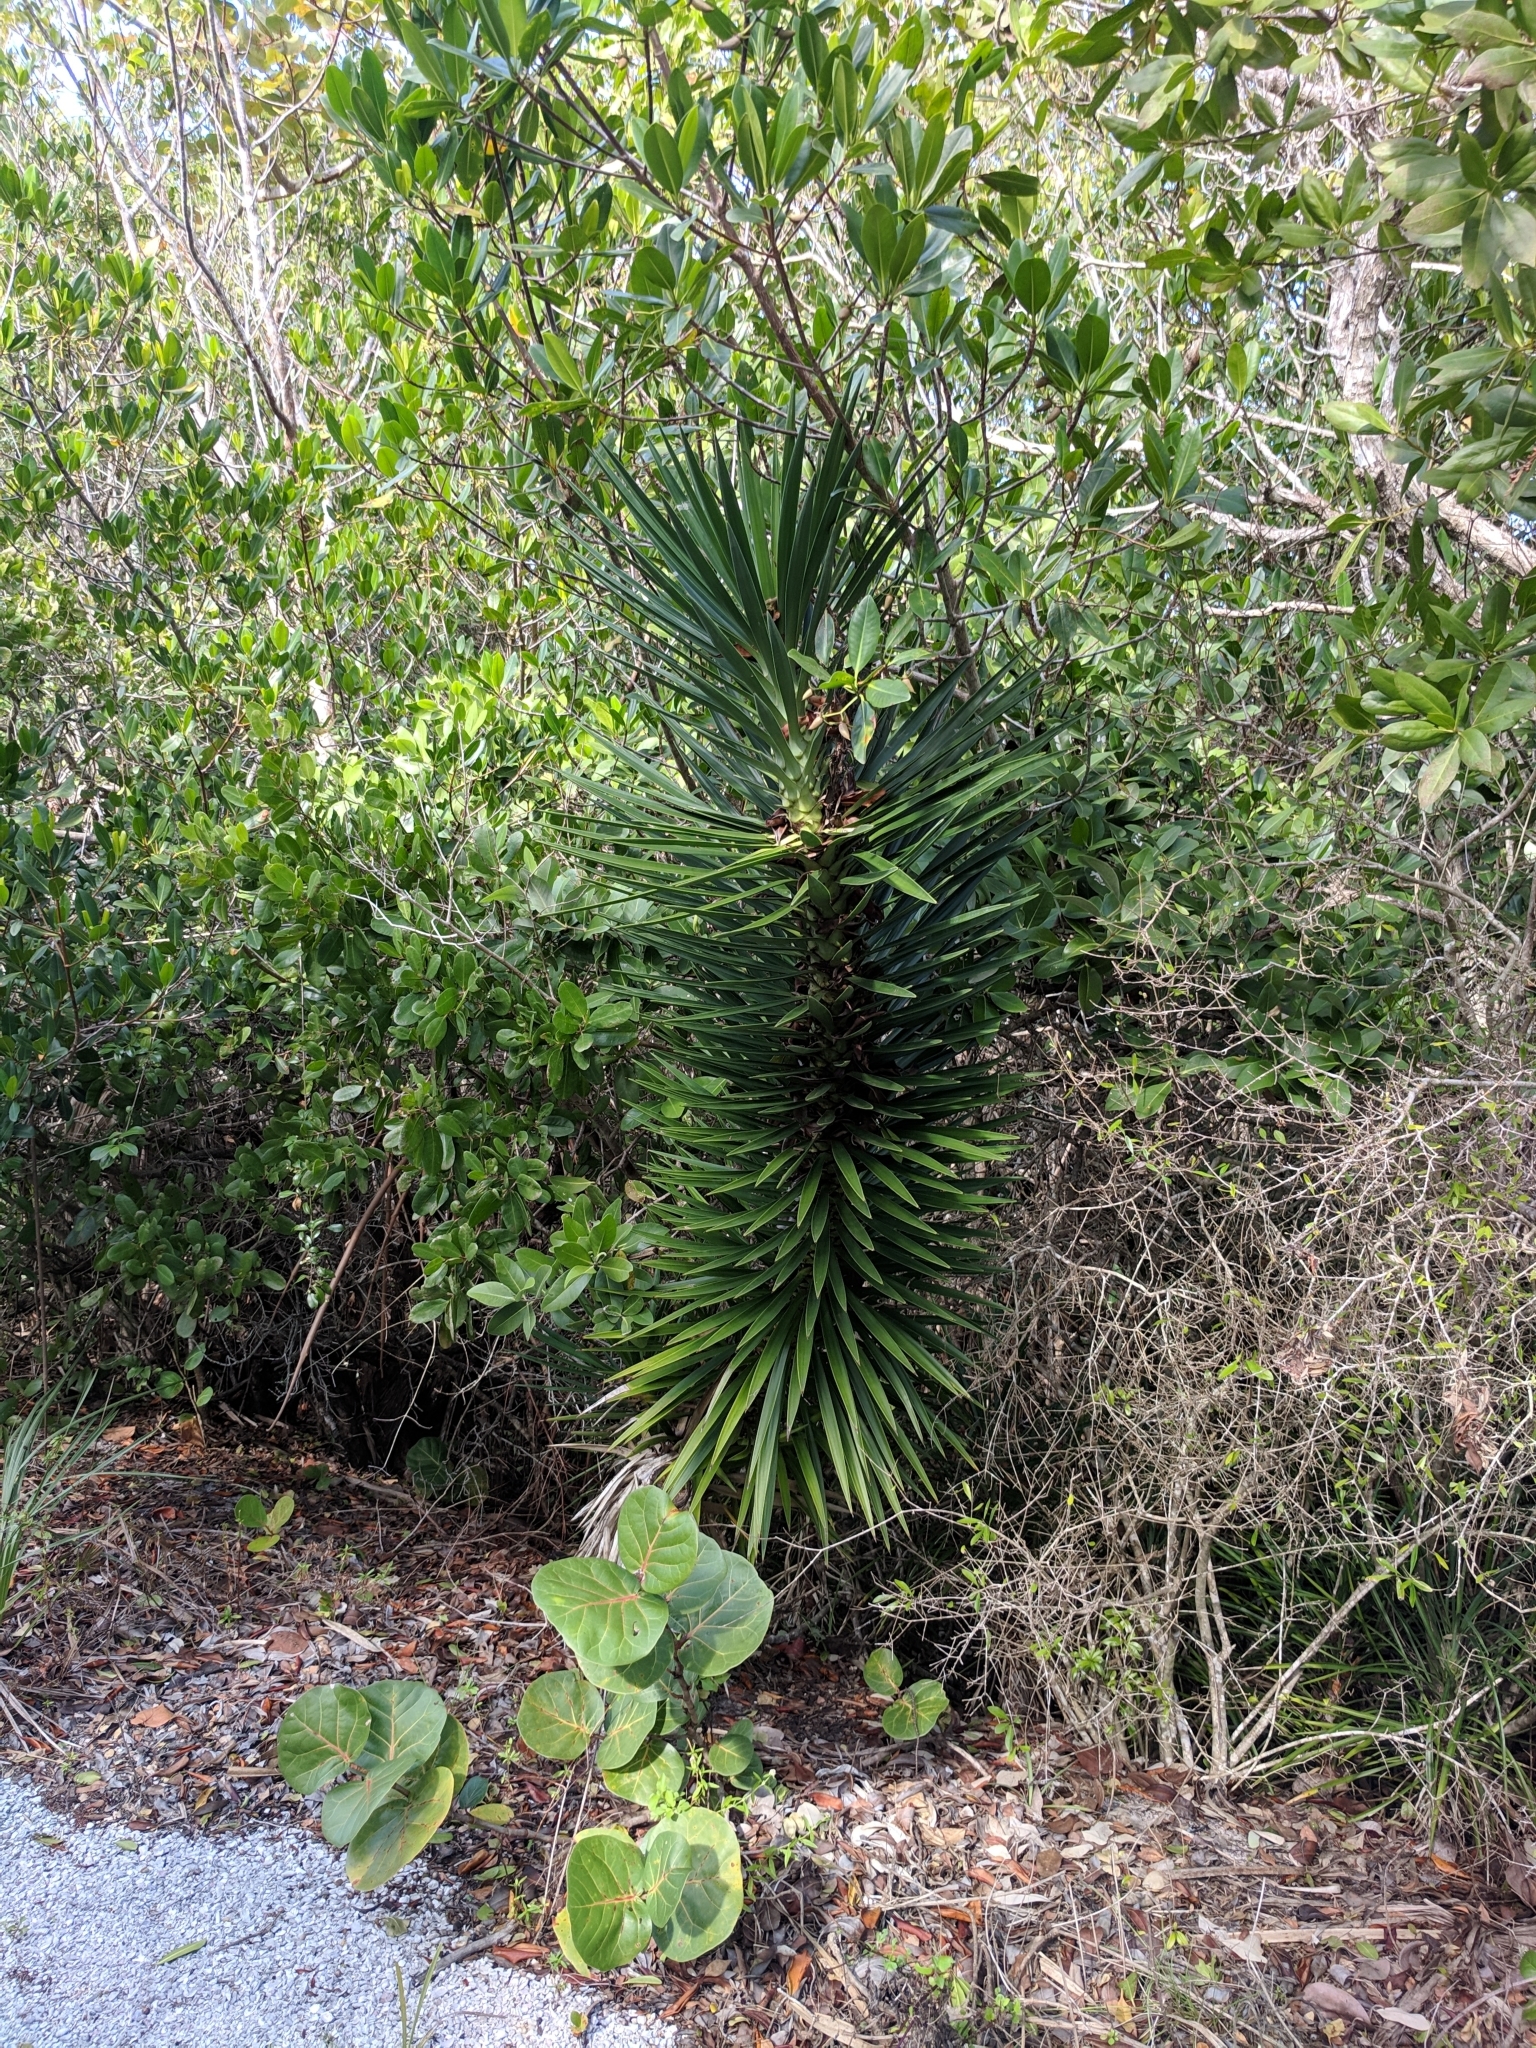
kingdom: Plantae
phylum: Tracheophyta
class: Liliopsida
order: Asparagales
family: Asparagaceae
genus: Yucca
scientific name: Yucca aloifolia
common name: Aloe yucca
